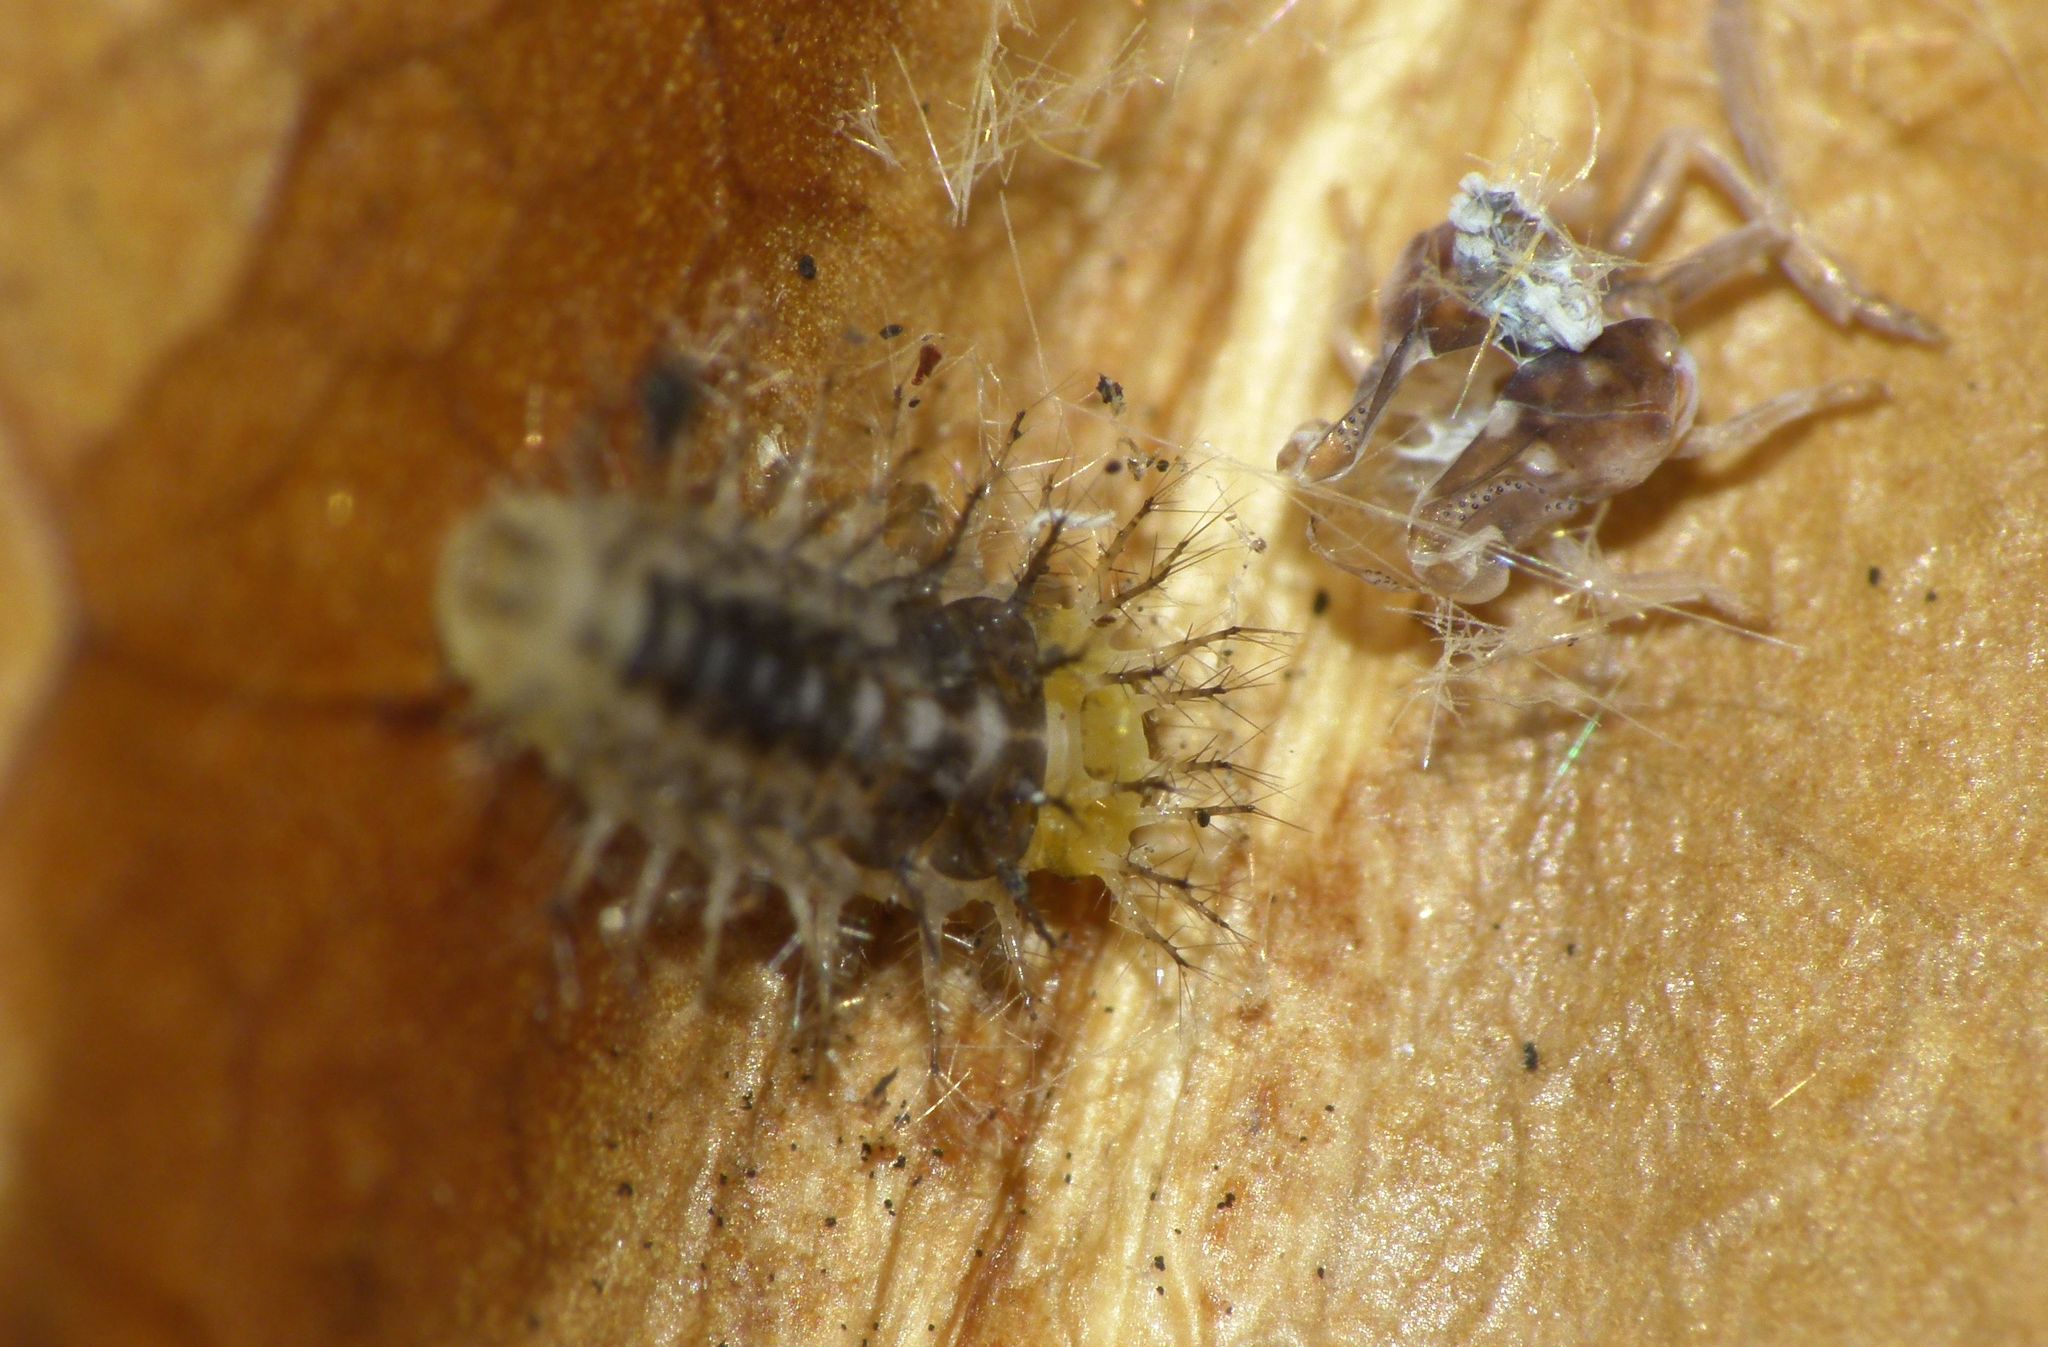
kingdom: Animalia
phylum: Arthropoda
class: Insecta
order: Coleoptera
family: Coccinellidae
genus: Halmus
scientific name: Halmus chalybeus
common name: Steel blue ladybird beetle
